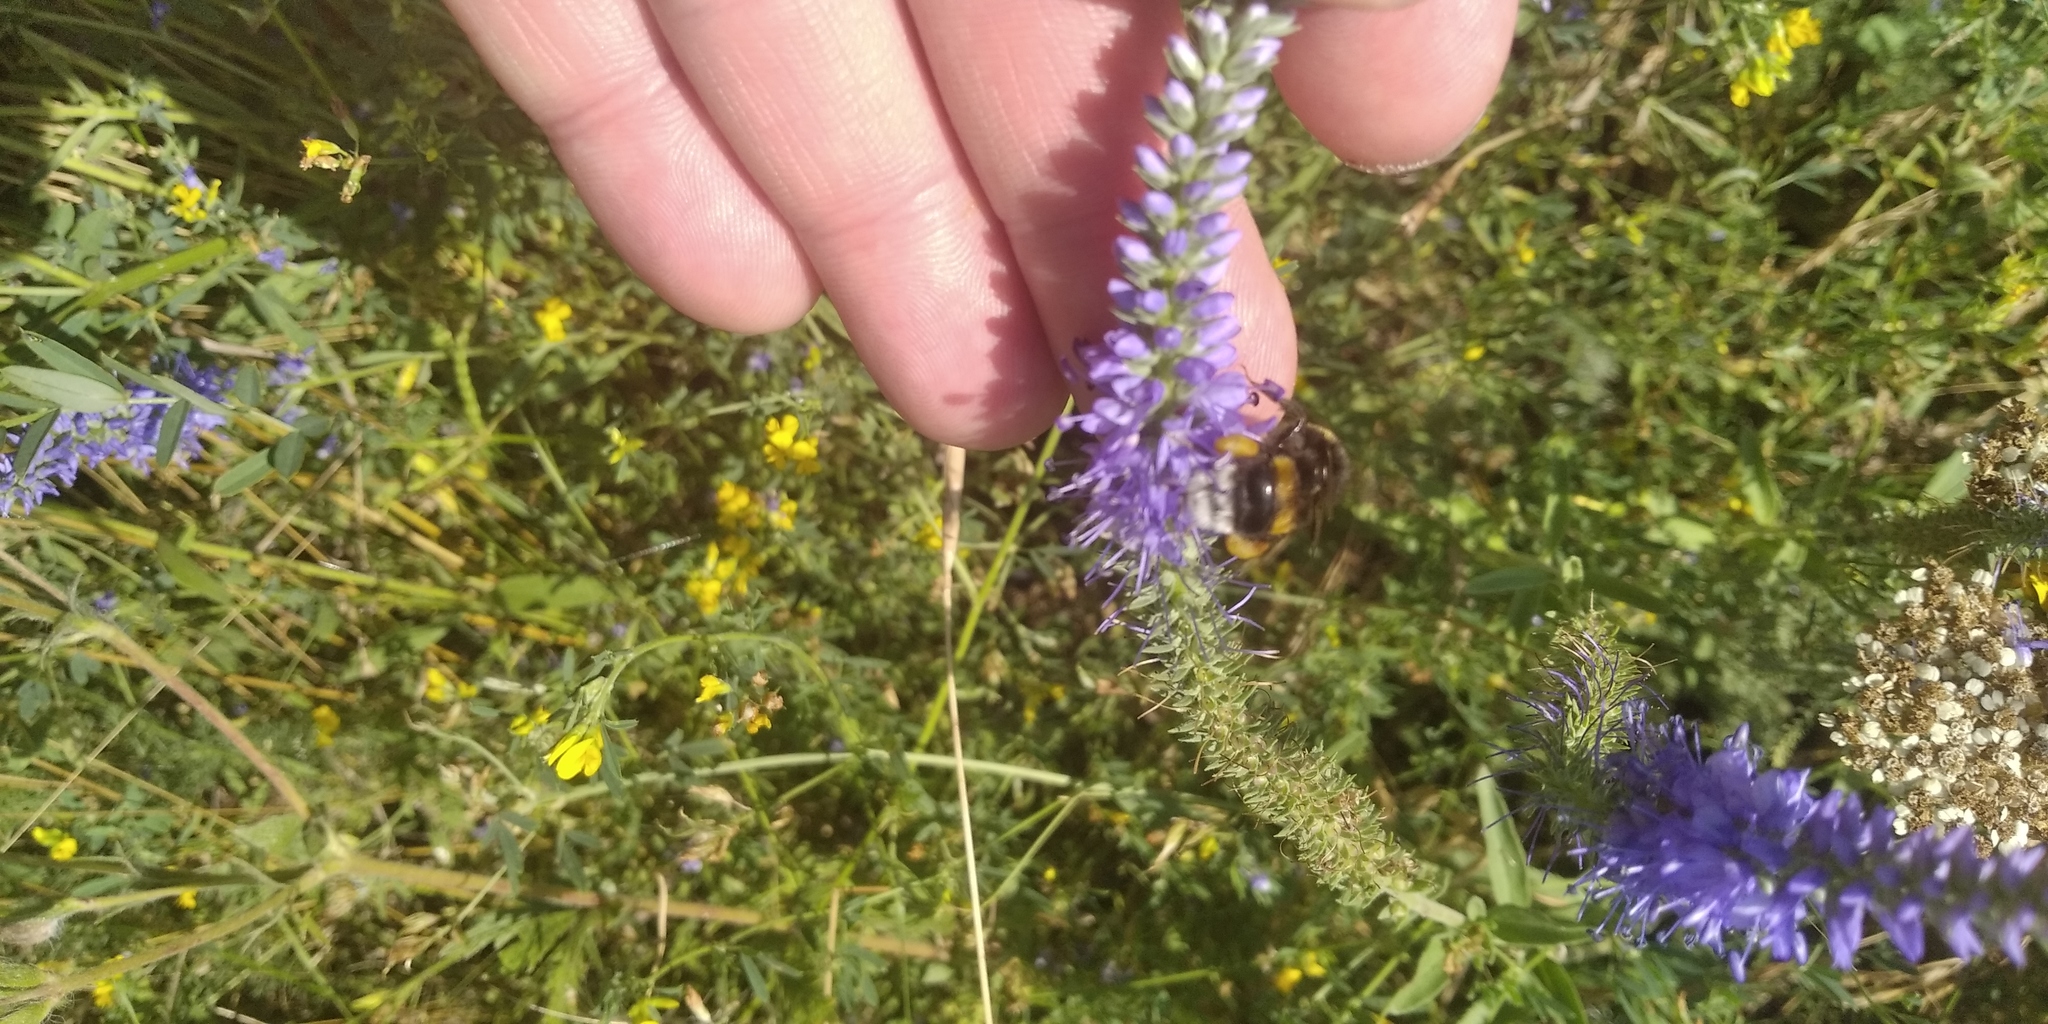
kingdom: Plantae
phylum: Tracheophyta
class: Magnoliopsida
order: Lamiales
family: Plantaginaceae
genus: Veronica
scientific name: Veronica barrelieri
